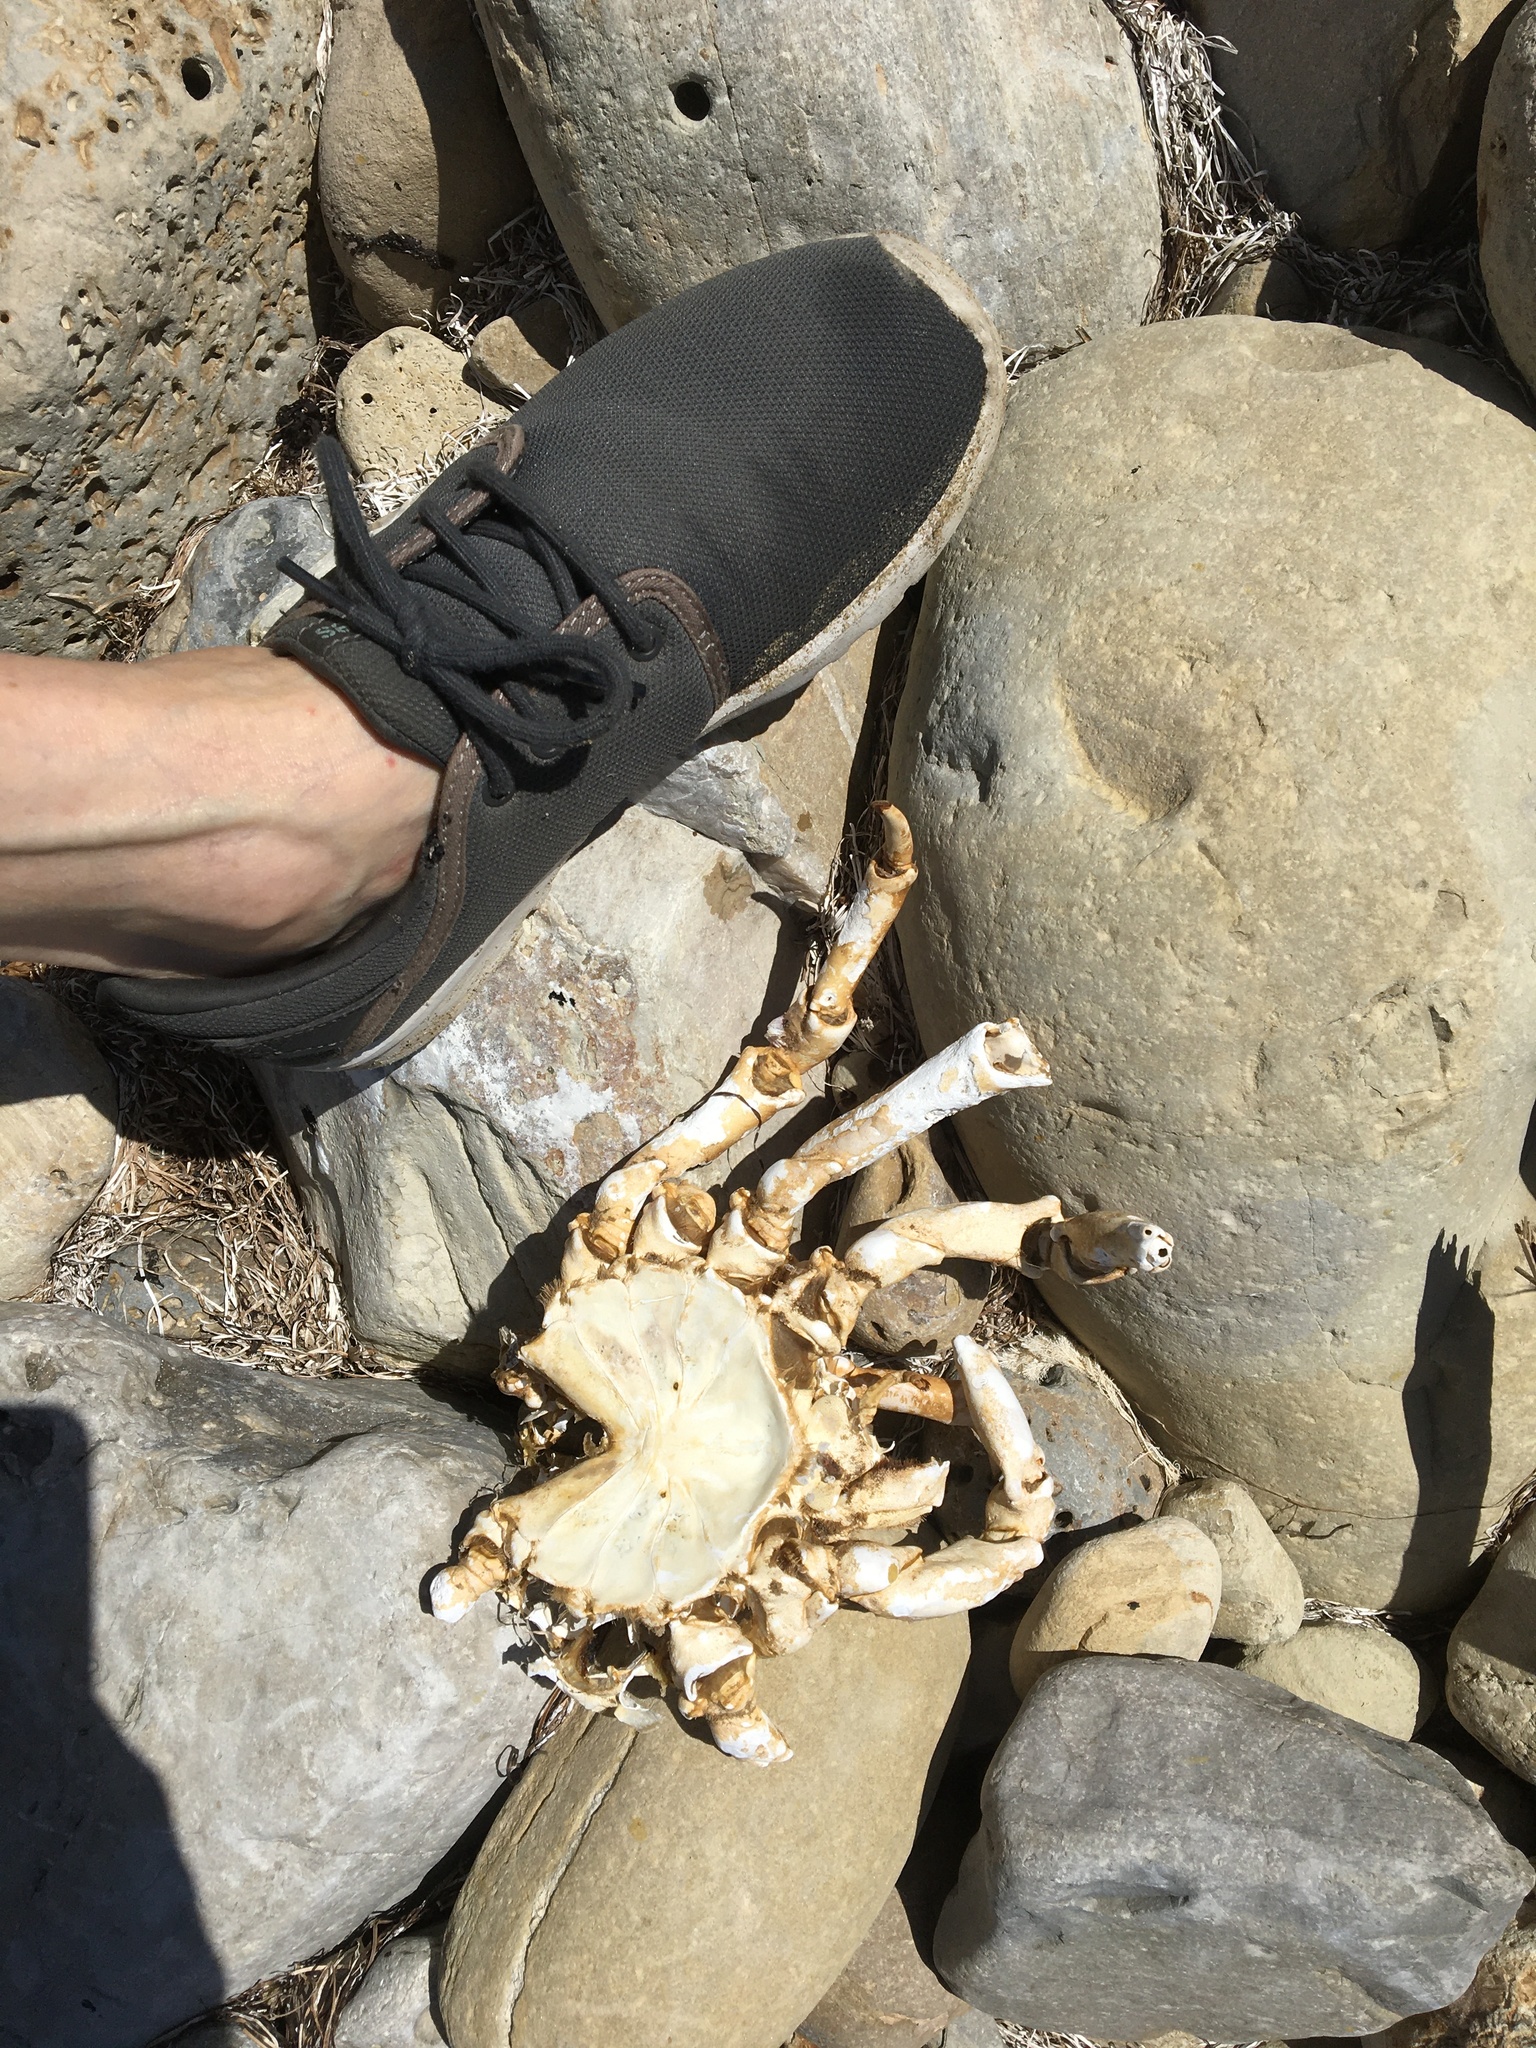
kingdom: Animalia
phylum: Arthropoda
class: Malacostraca
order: Decapoda
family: Epialtidae
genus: Loxorhynchus
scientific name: Loxorhynchus grandis
